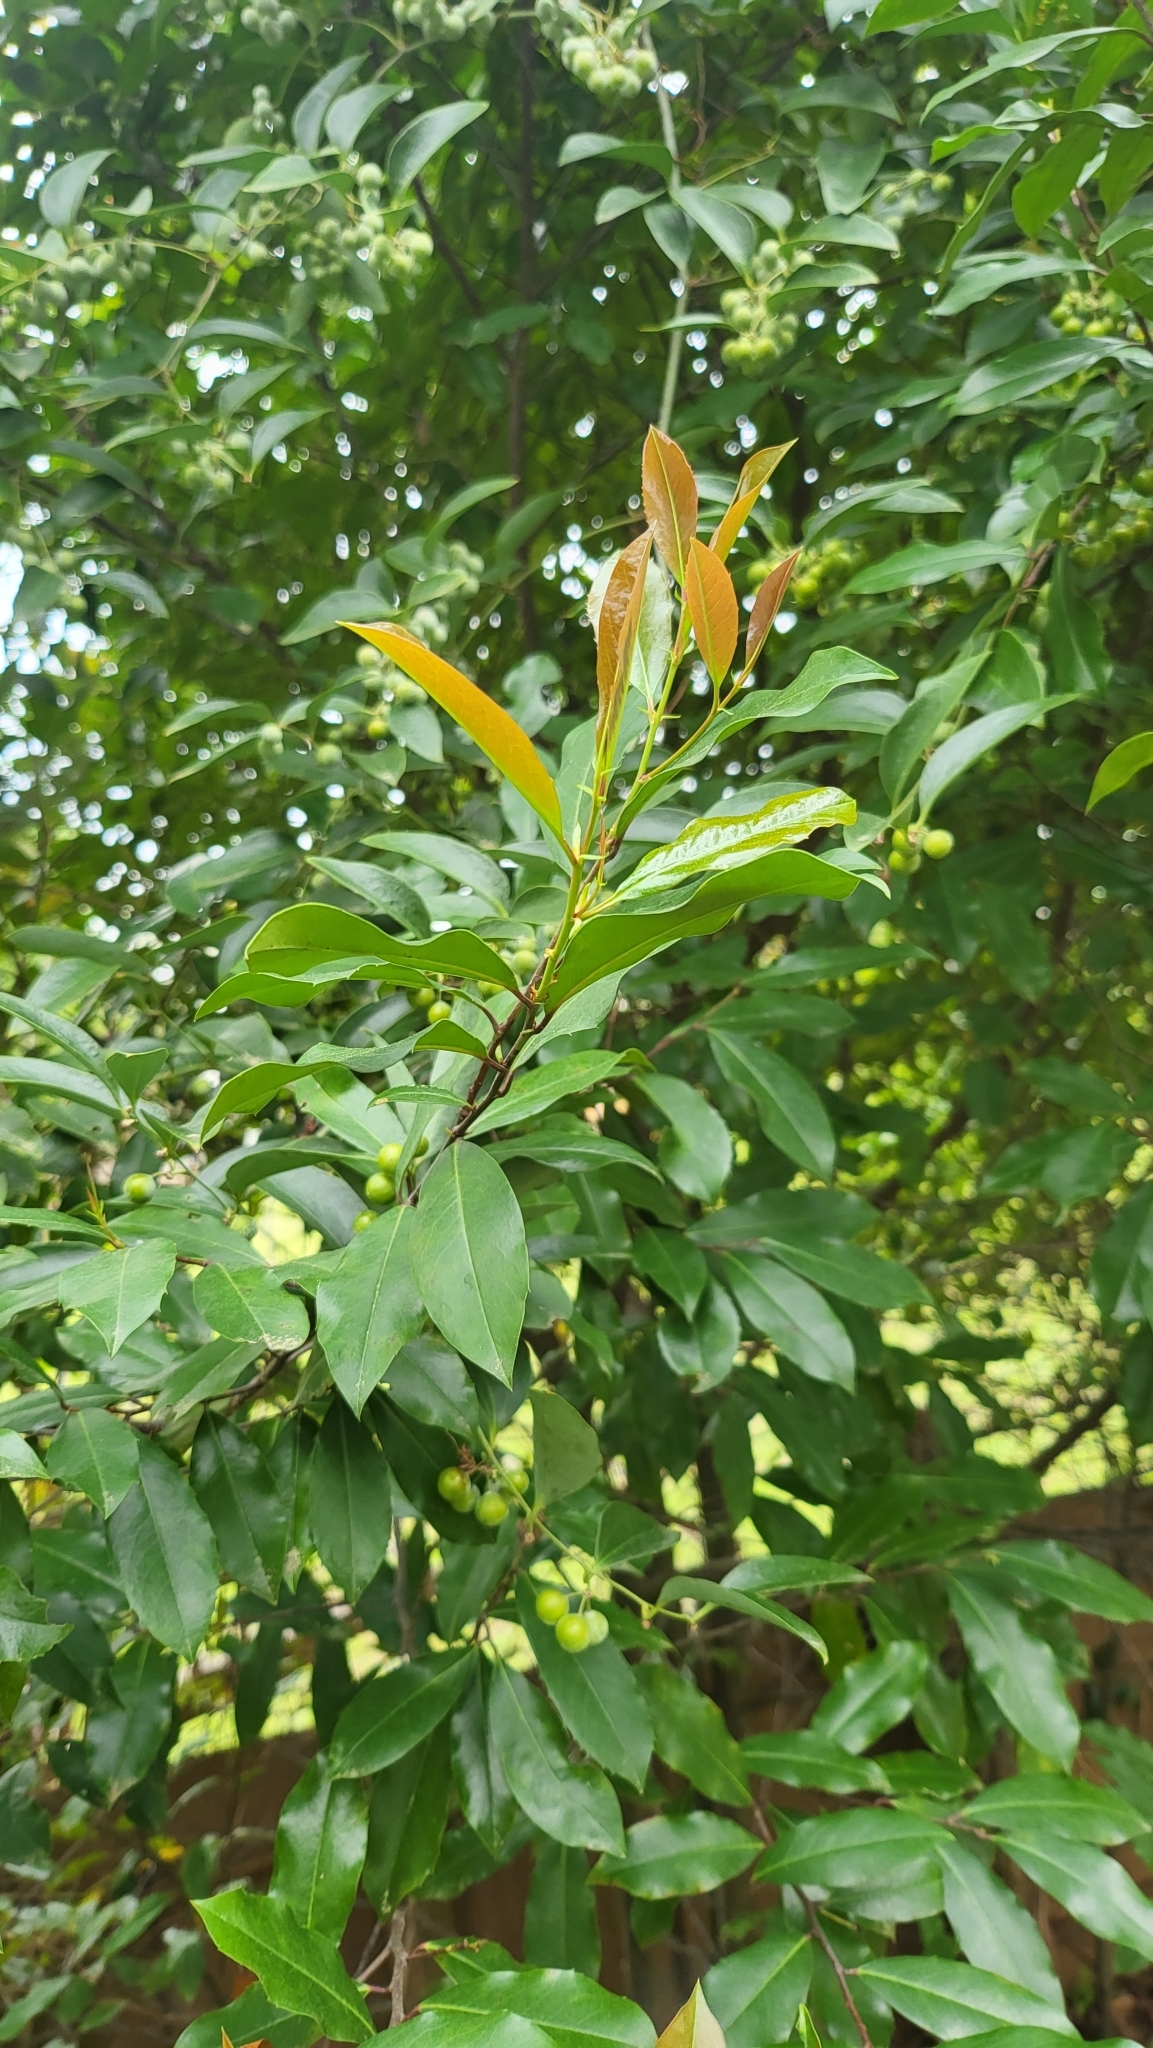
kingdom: Plantae
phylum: Tracheophyta
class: Magnoliopsida
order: Rosales
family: Rosaceae
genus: Prunus
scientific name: Prunus caroliniana
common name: Carolina laurel cherry
